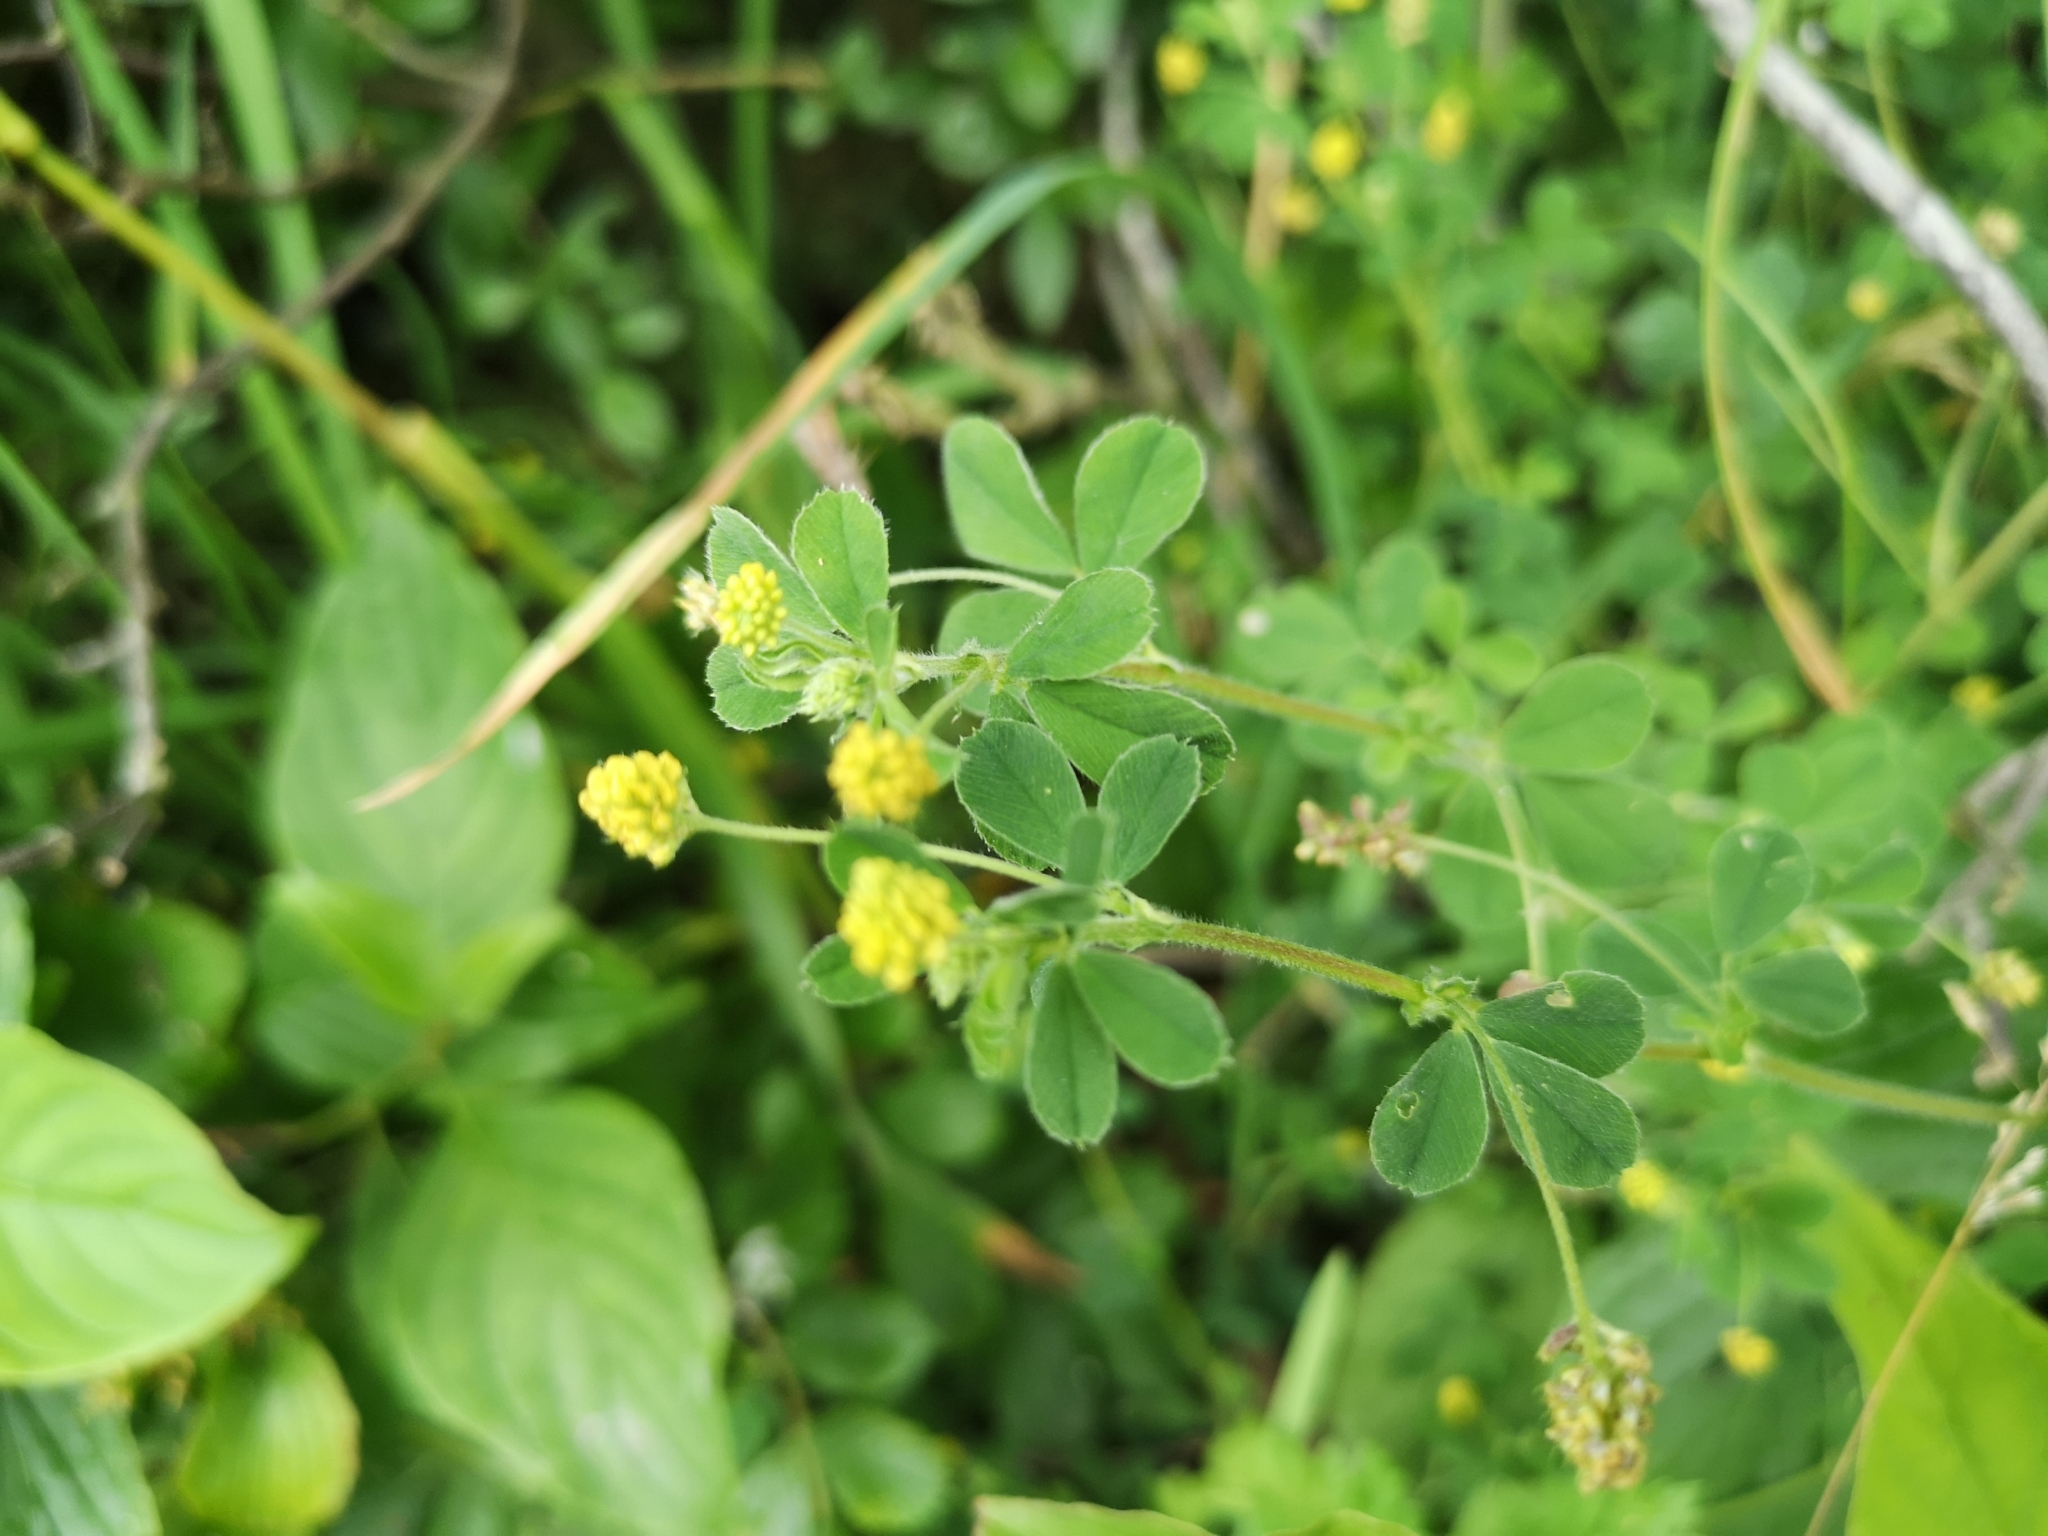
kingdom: Plantae
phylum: Tracheophyta
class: Magnoliopsida
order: Fabales
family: Fabaceae
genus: Medicago
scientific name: Medicago lupulina
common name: Black medick
